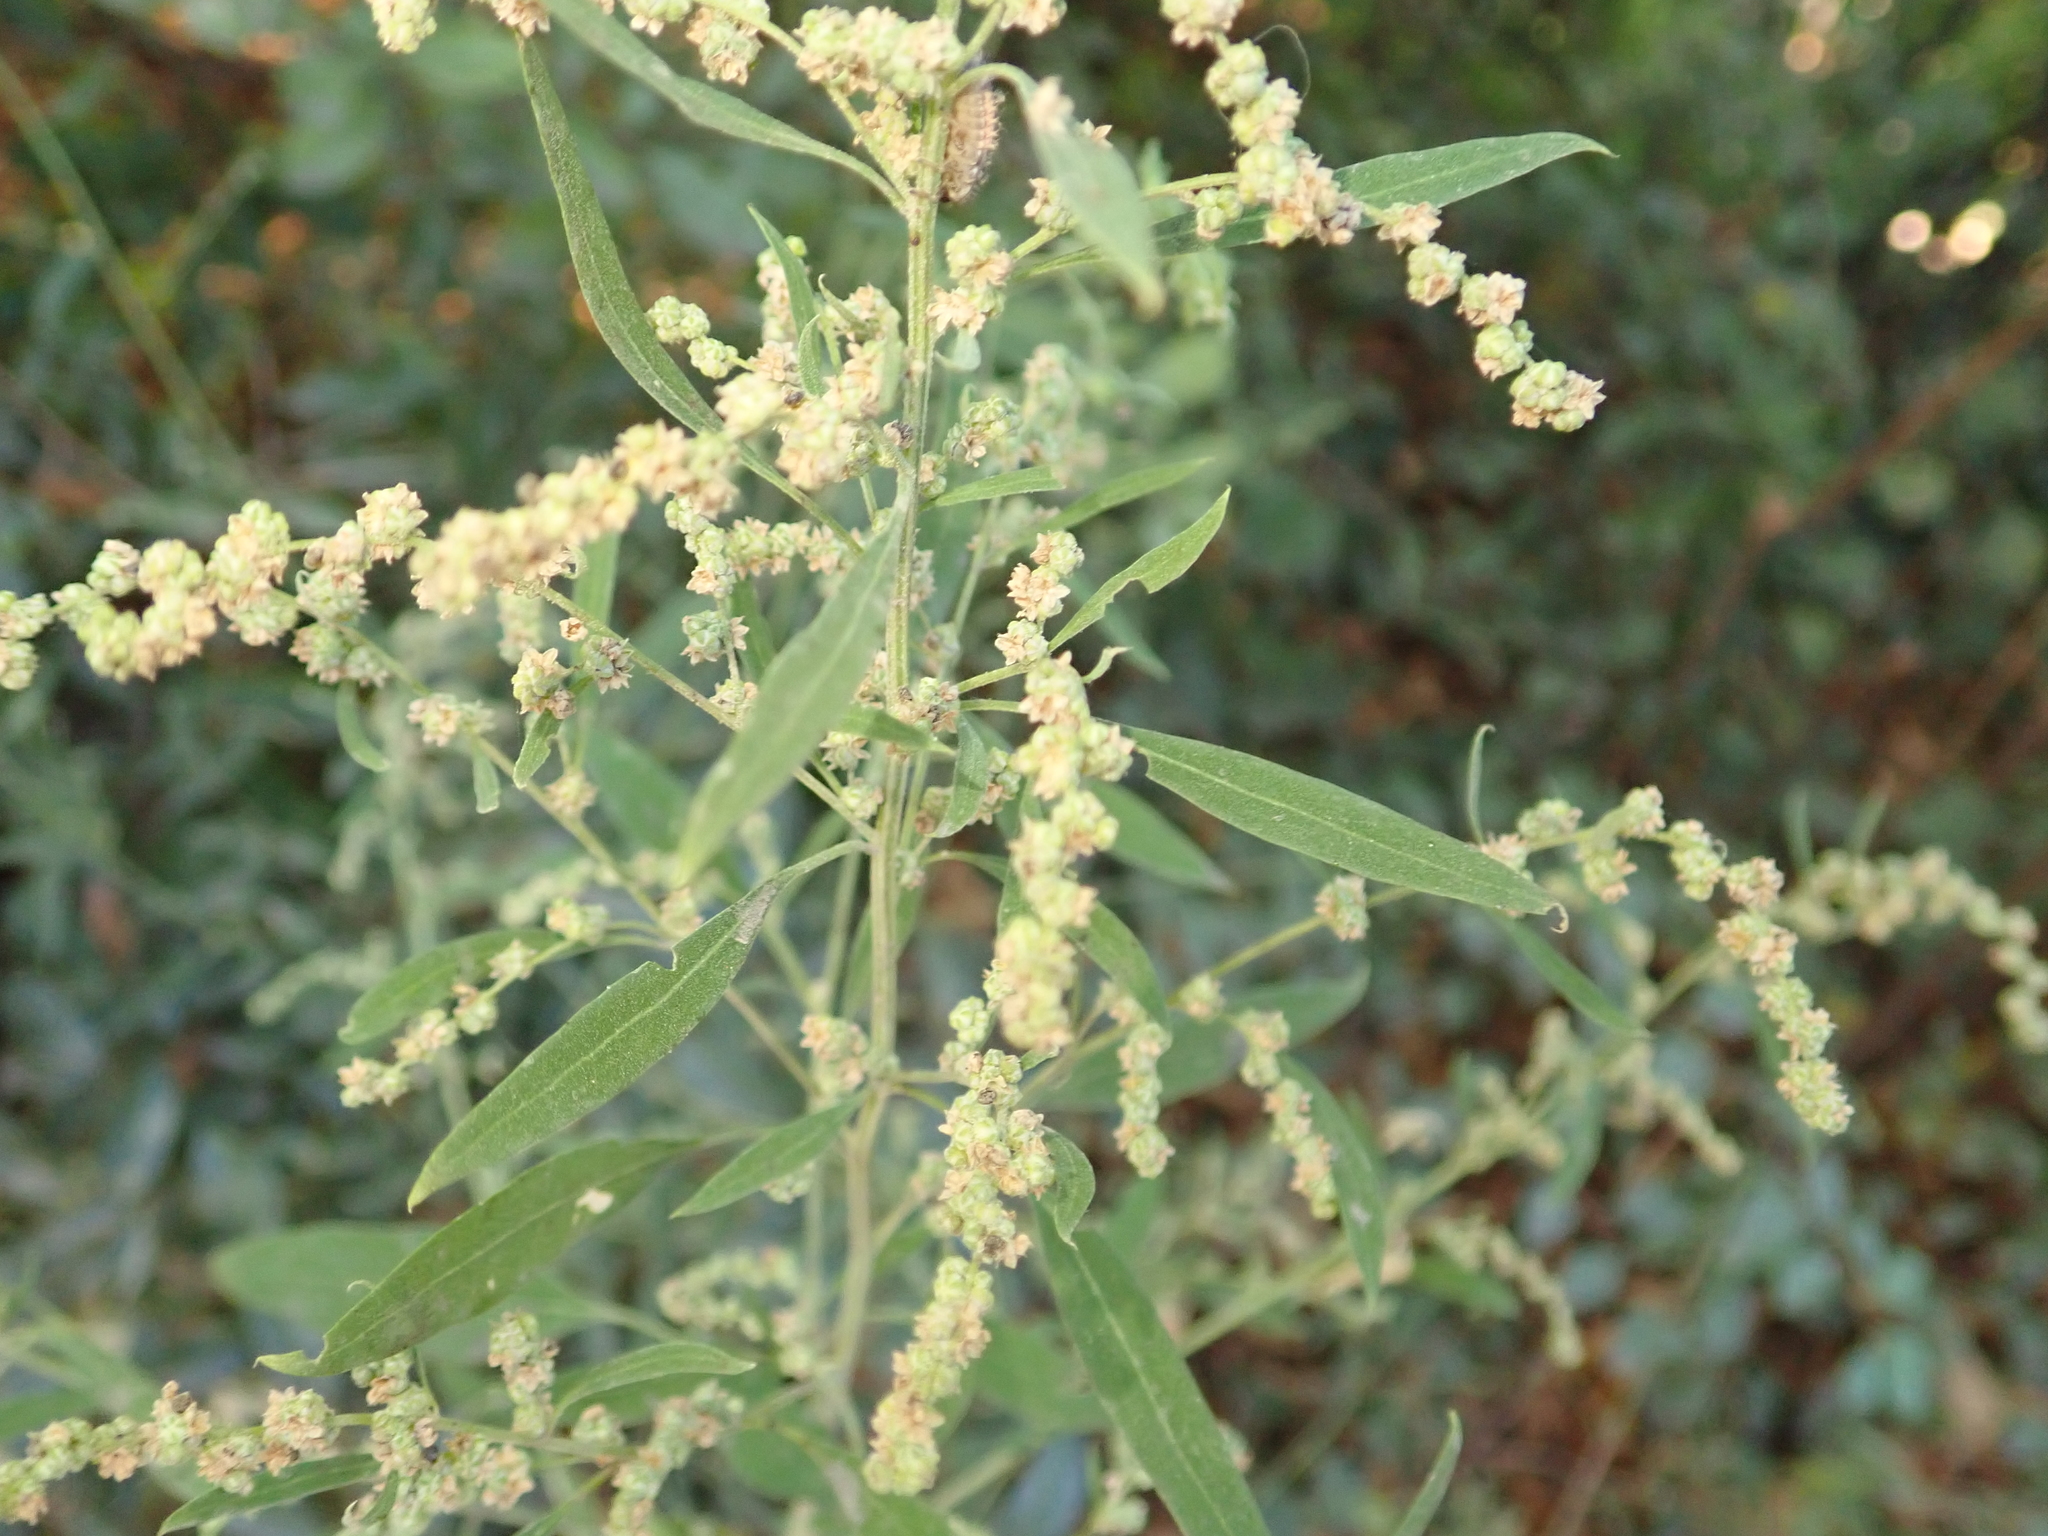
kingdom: Plantae
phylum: Tracheophyta
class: Magnoliopsida
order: Caryophyllales
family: Amaranthaceae
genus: Chenopodium
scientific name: Chenopodium album
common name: Fat-hen
